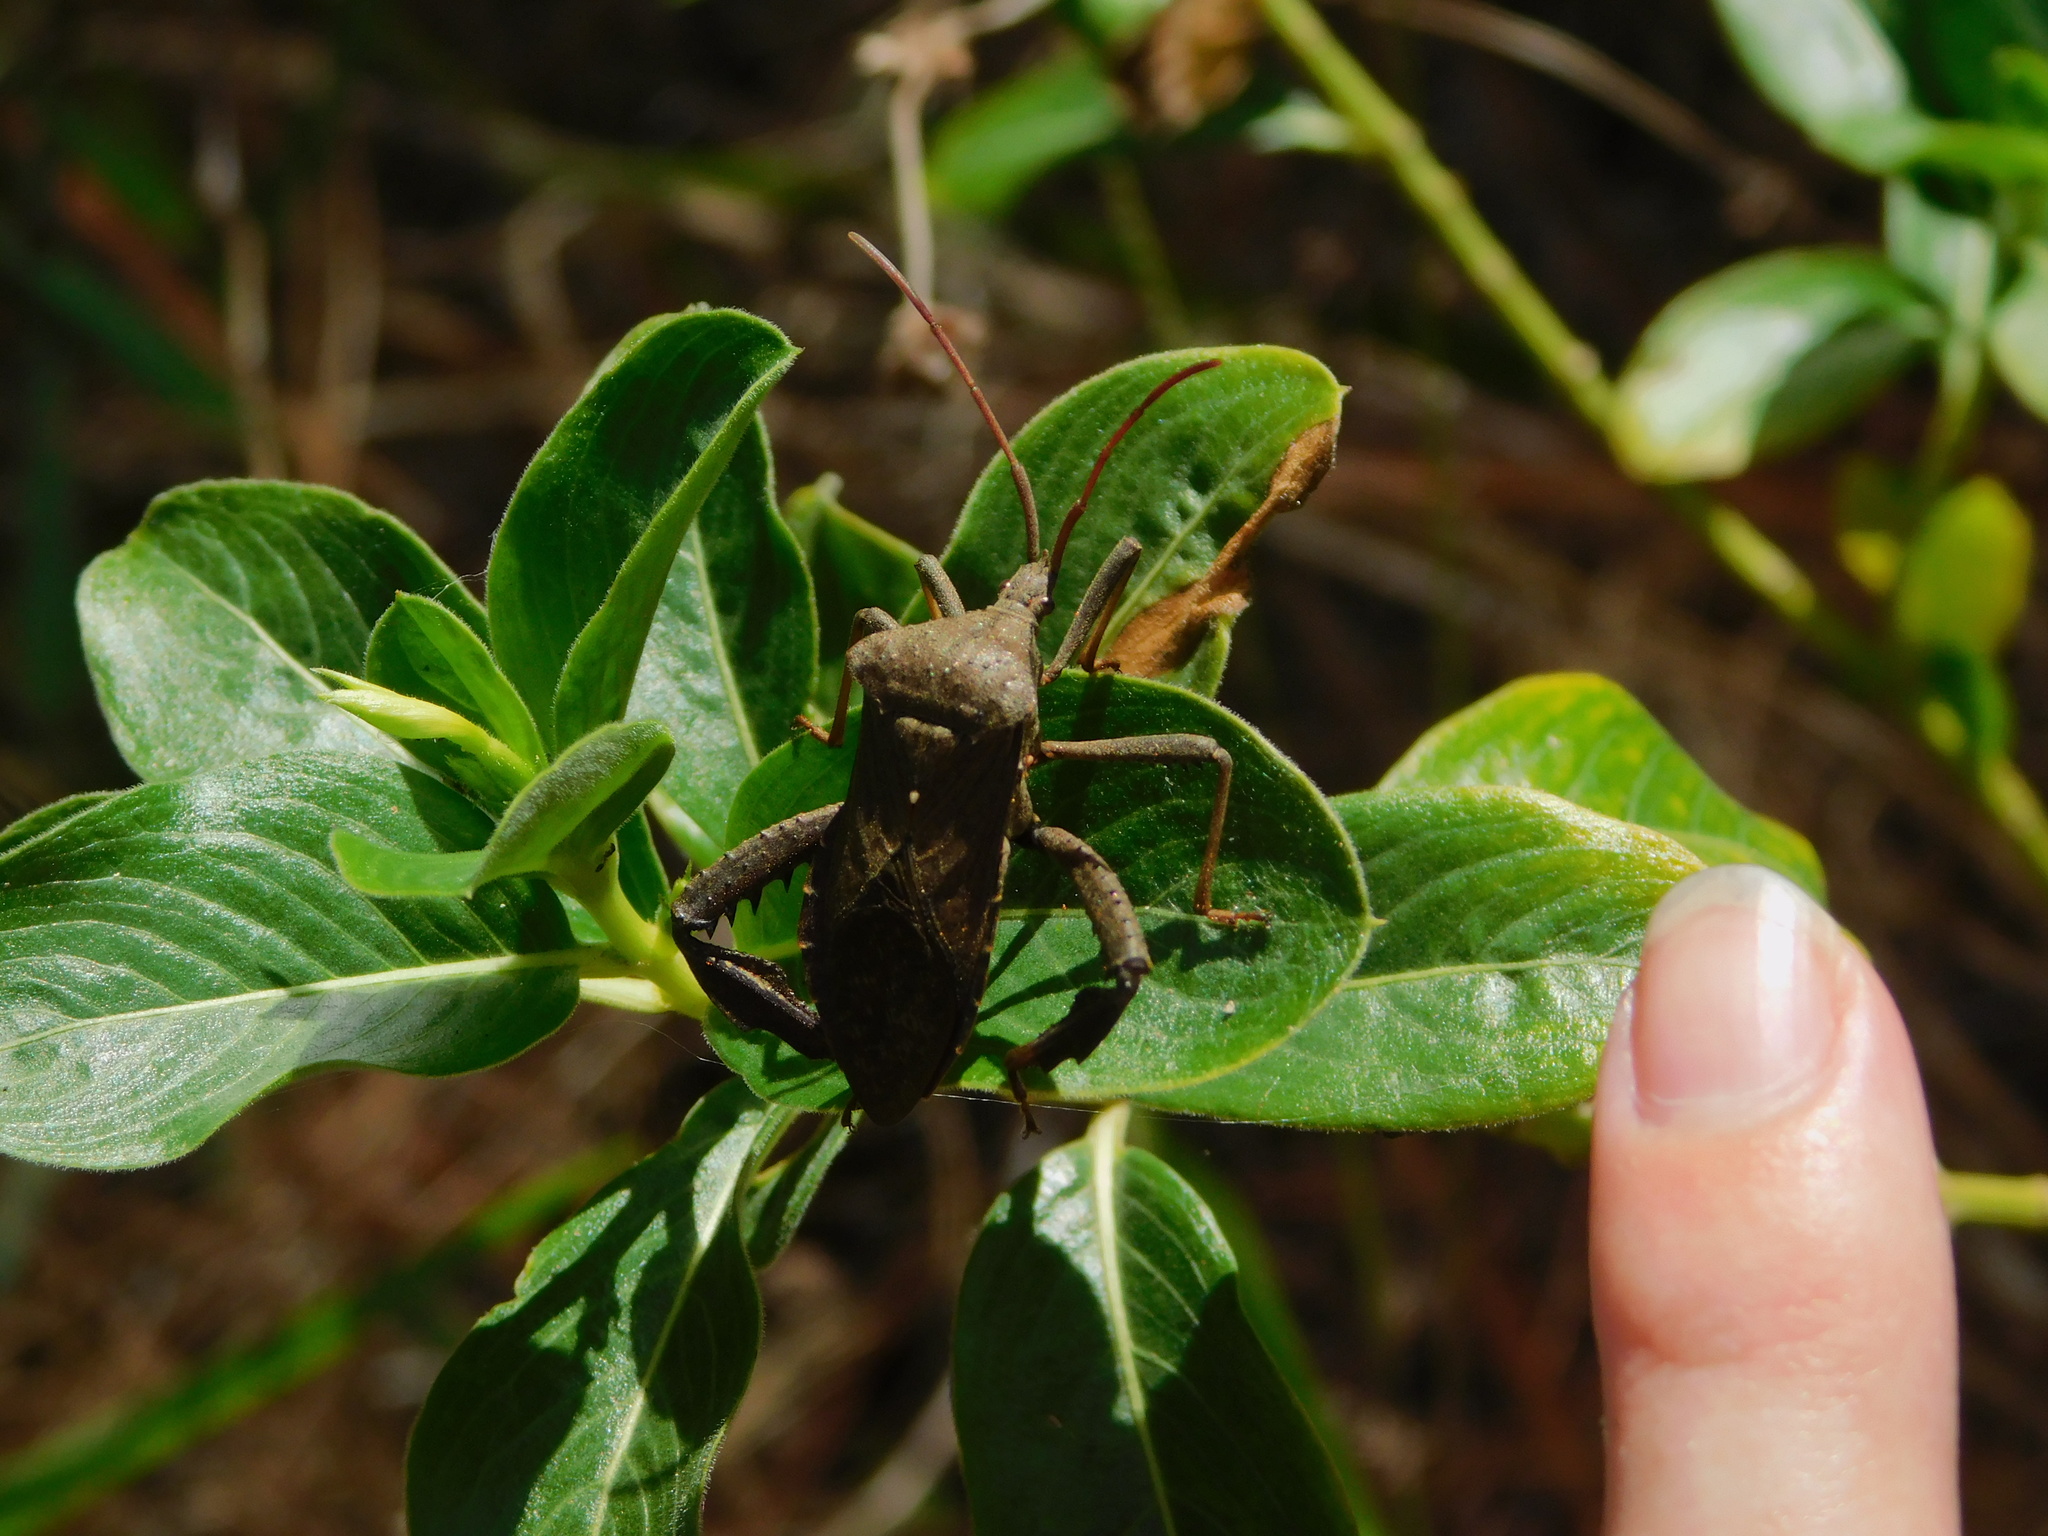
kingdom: Animalia
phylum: Arthropoda
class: Insecta
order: Hemiptera
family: Coreidae
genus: Acanthocephala
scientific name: Acanthocephala femorata
